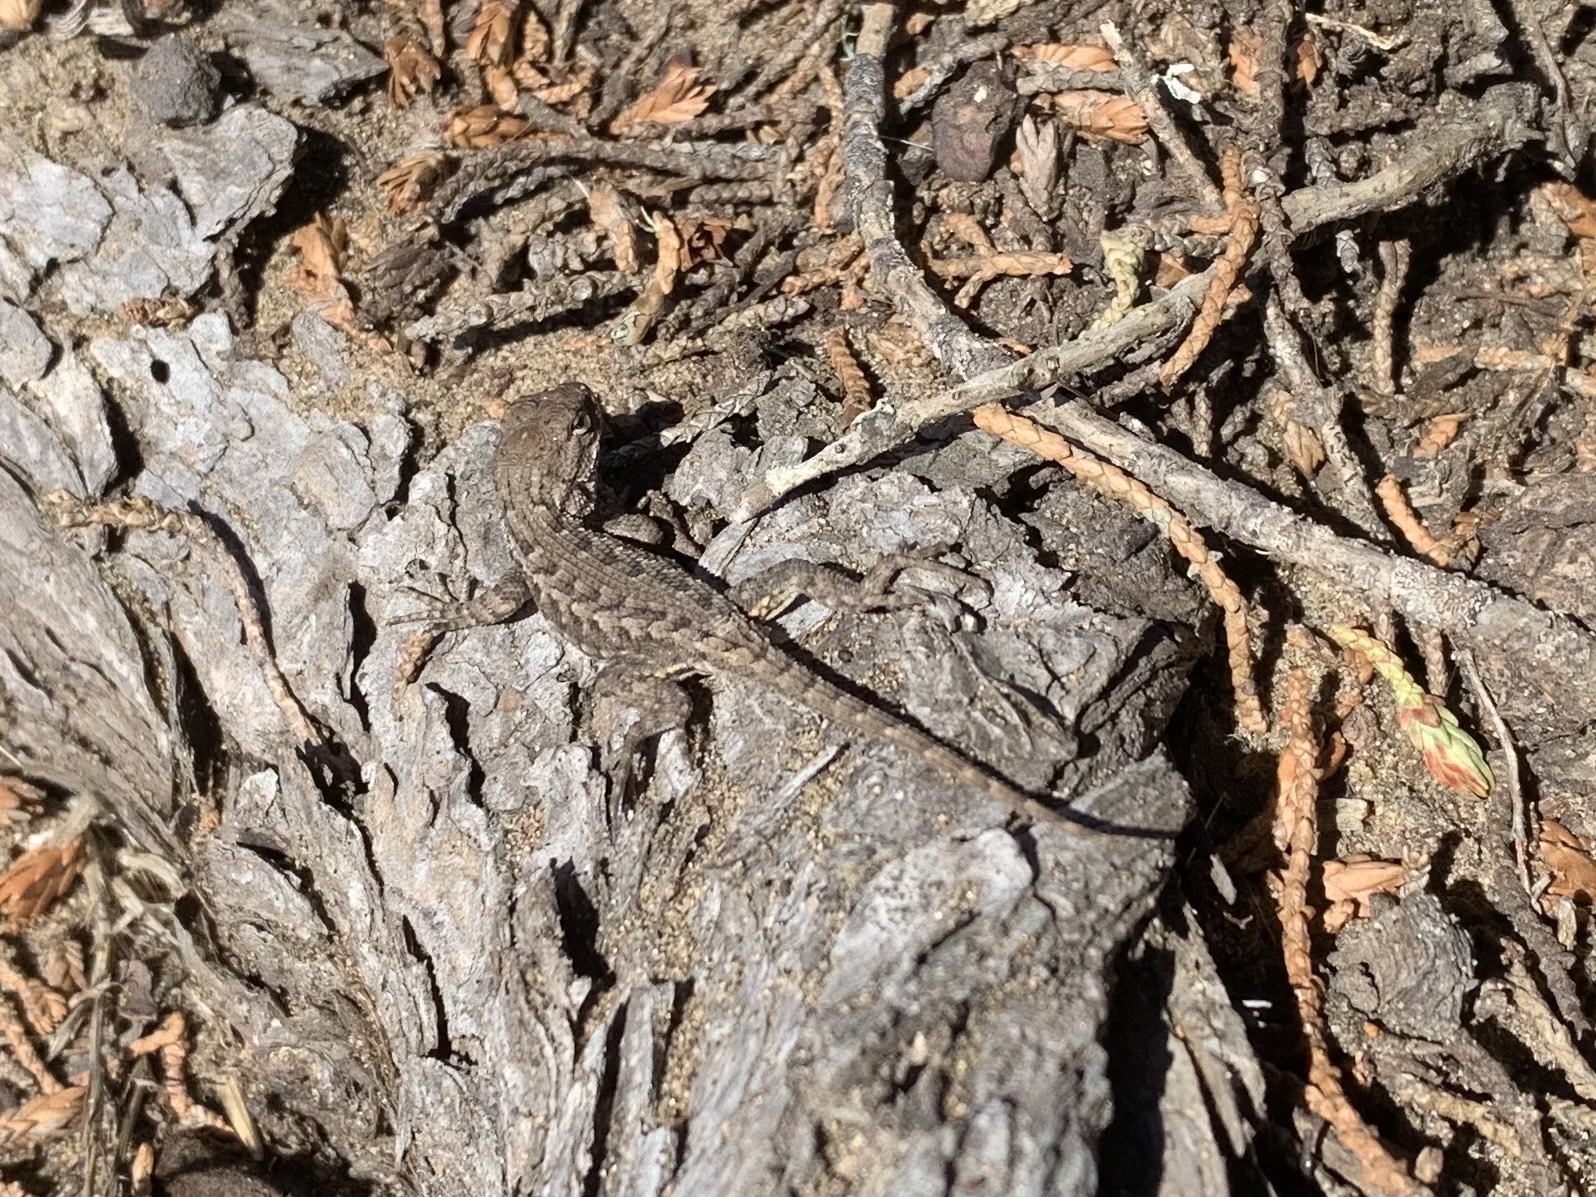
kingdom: Animalia
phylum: Chordata
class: Squamata
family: Phrynosomatidae
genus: Sceloporus
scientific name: Sceloporus occidentalis
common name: Western fence lizard
